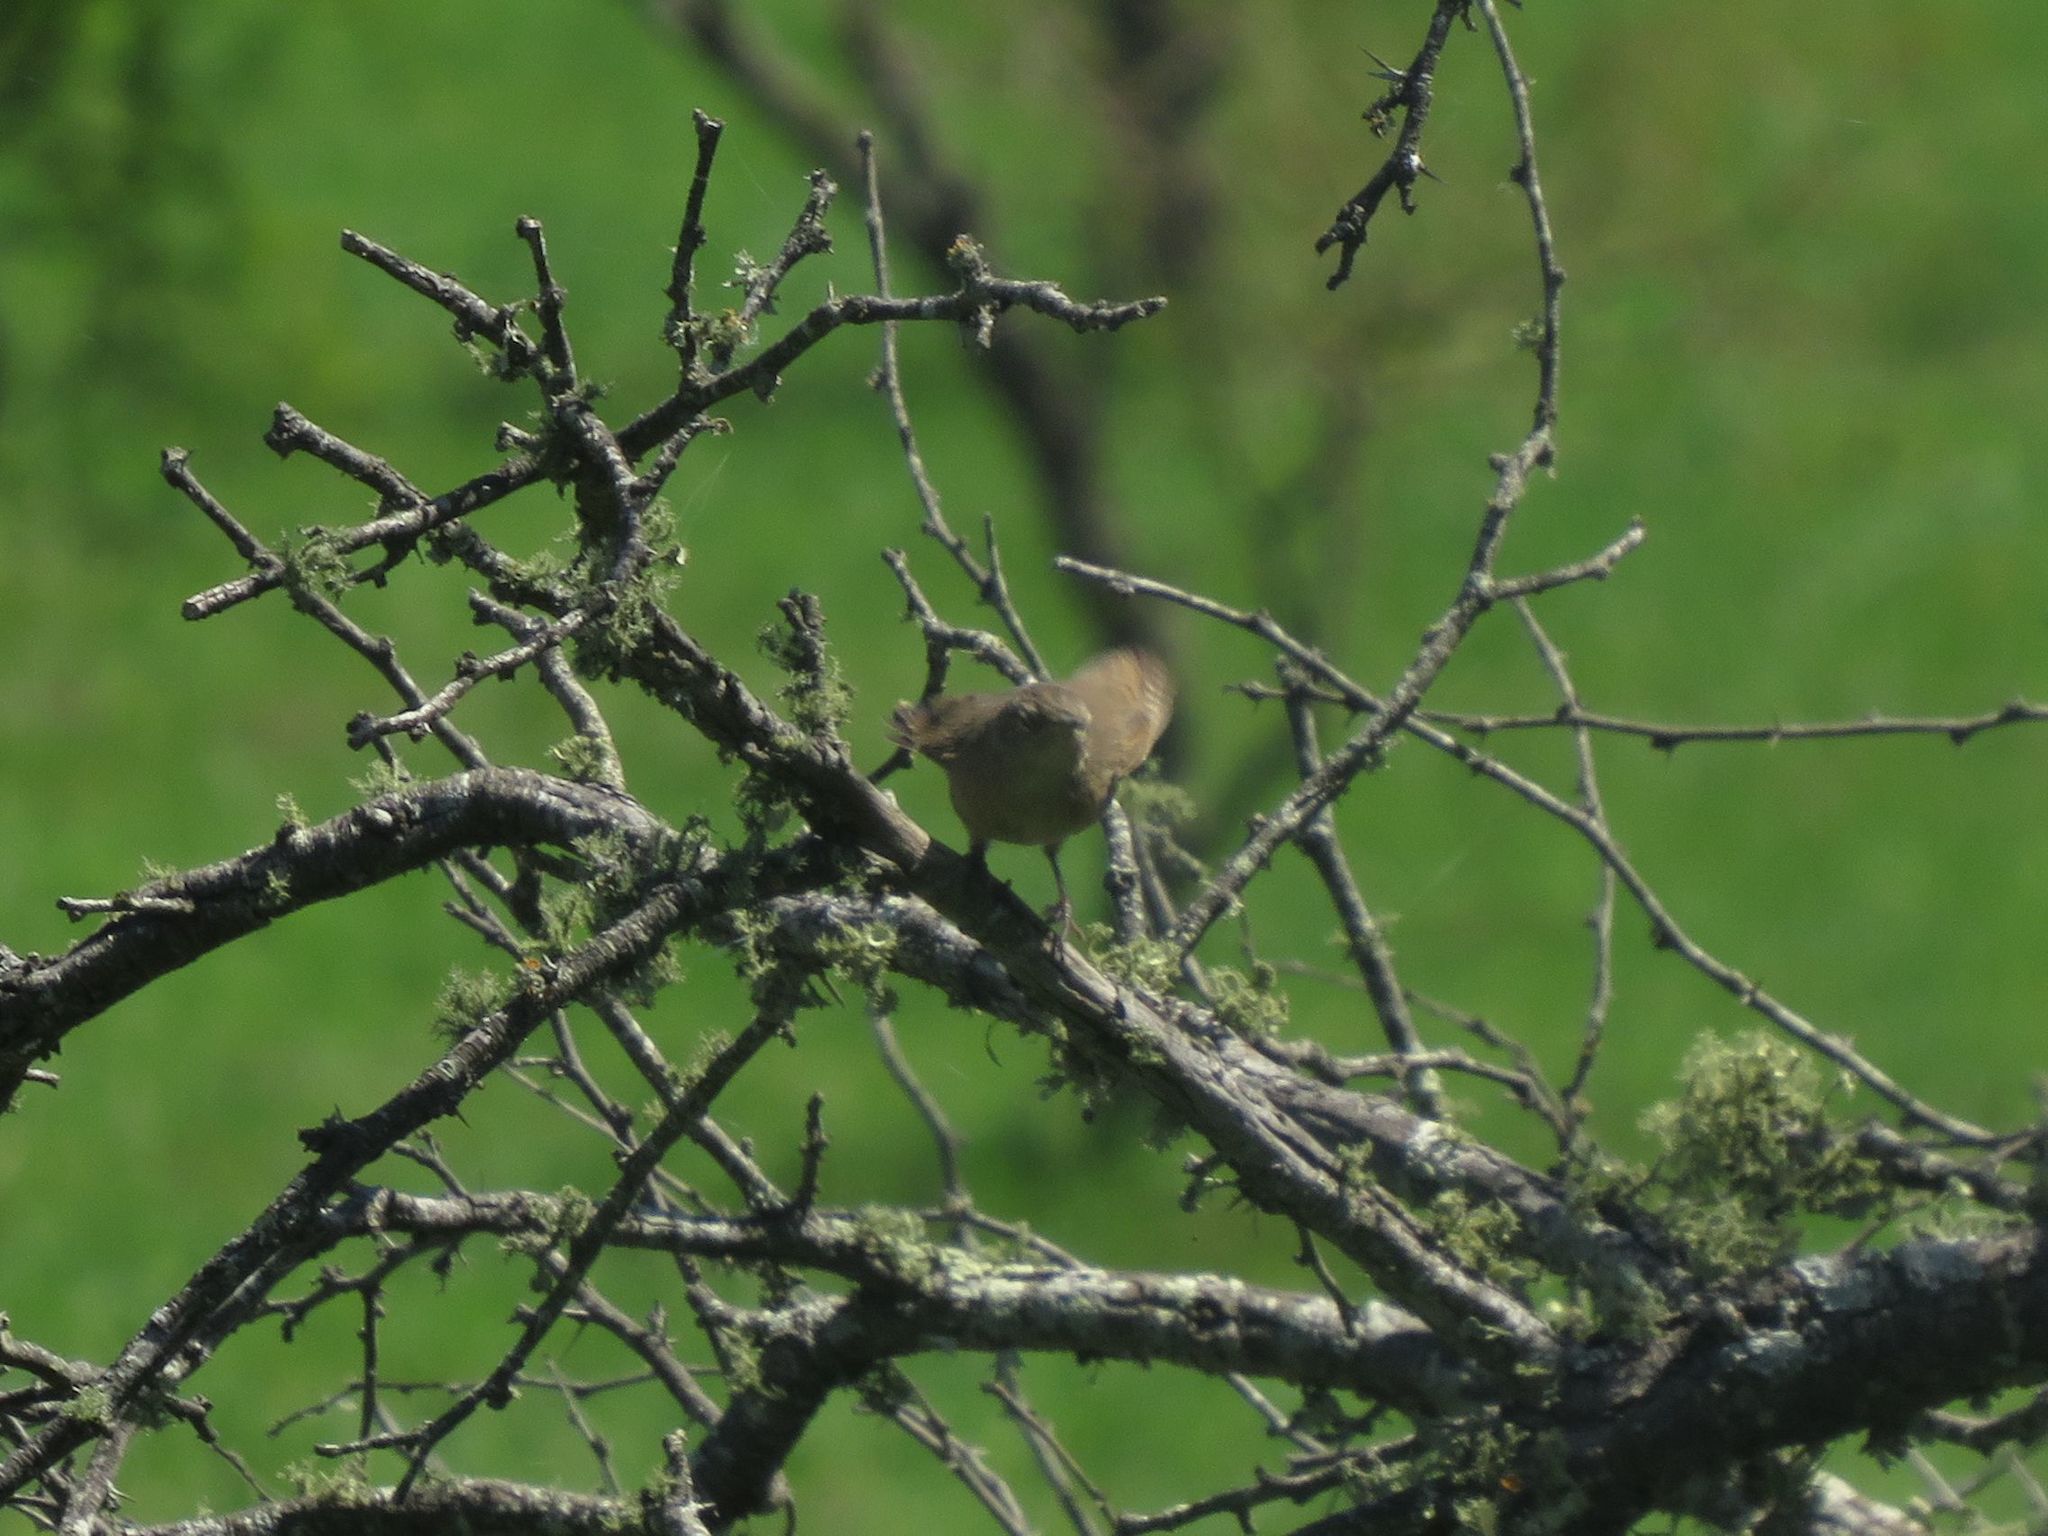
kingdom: Animalia
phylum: Chordata
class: Aves
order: Passeriformes
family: Troglodytidae
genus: Troglodytes
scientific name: Troglodytes aedon
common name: House wren
